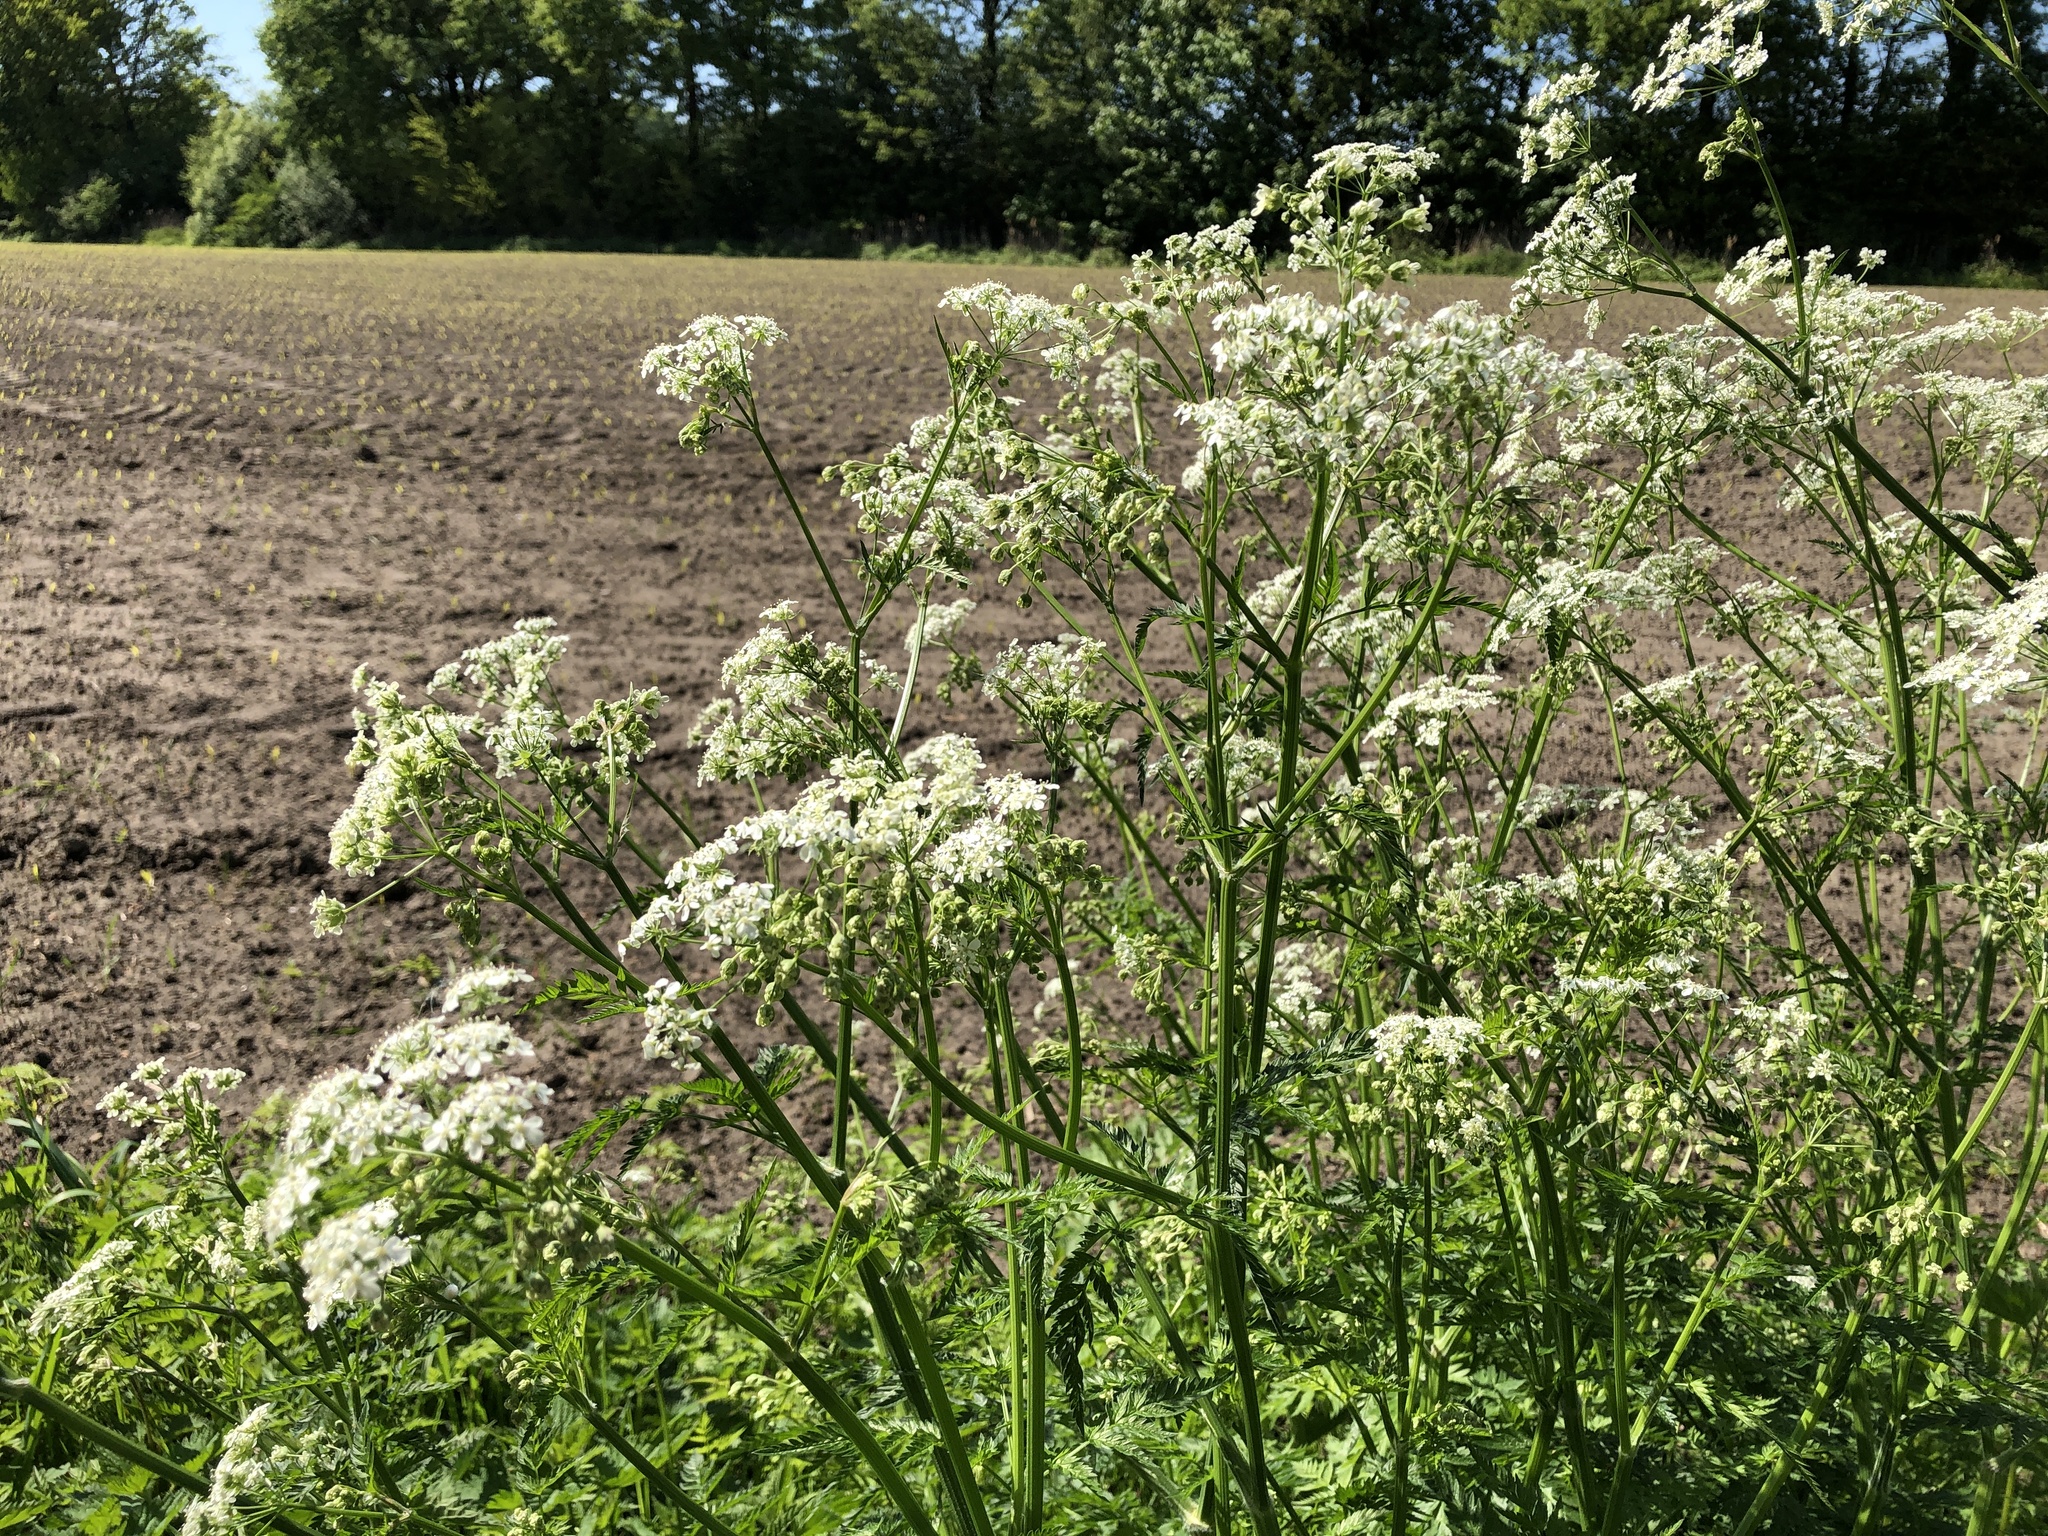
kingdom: Plantae
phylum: Tracheophyta
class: Magnoliopsida
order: Apiales
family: Apiaceae
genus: Anthriscus
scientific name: Anthriscus sylvestris
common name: Cow parsley
